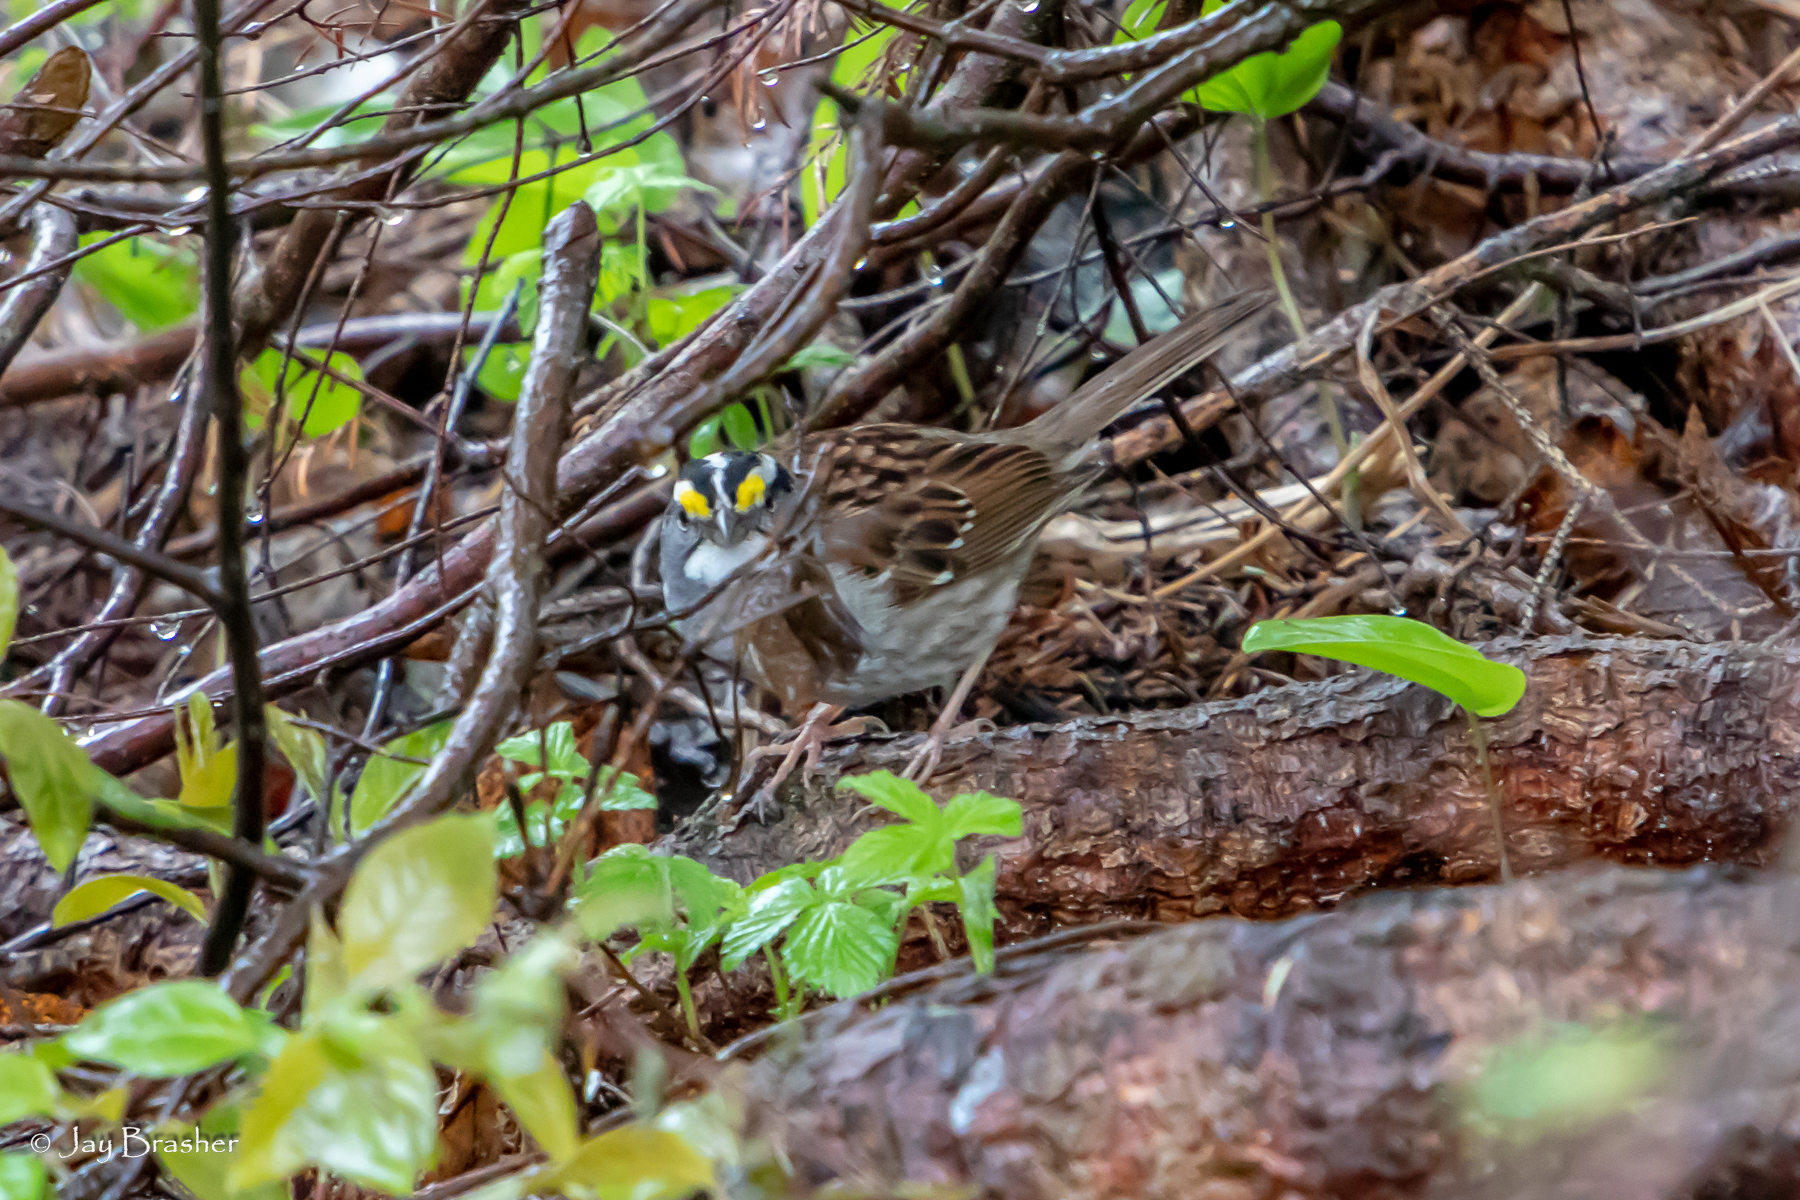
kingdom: Animalia
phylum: Chordata
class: Aves
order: Passeriformes
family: Passerellidae
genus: Zonotrichia
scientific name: Zonotrichia albicollis
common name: White-throated sparrow
